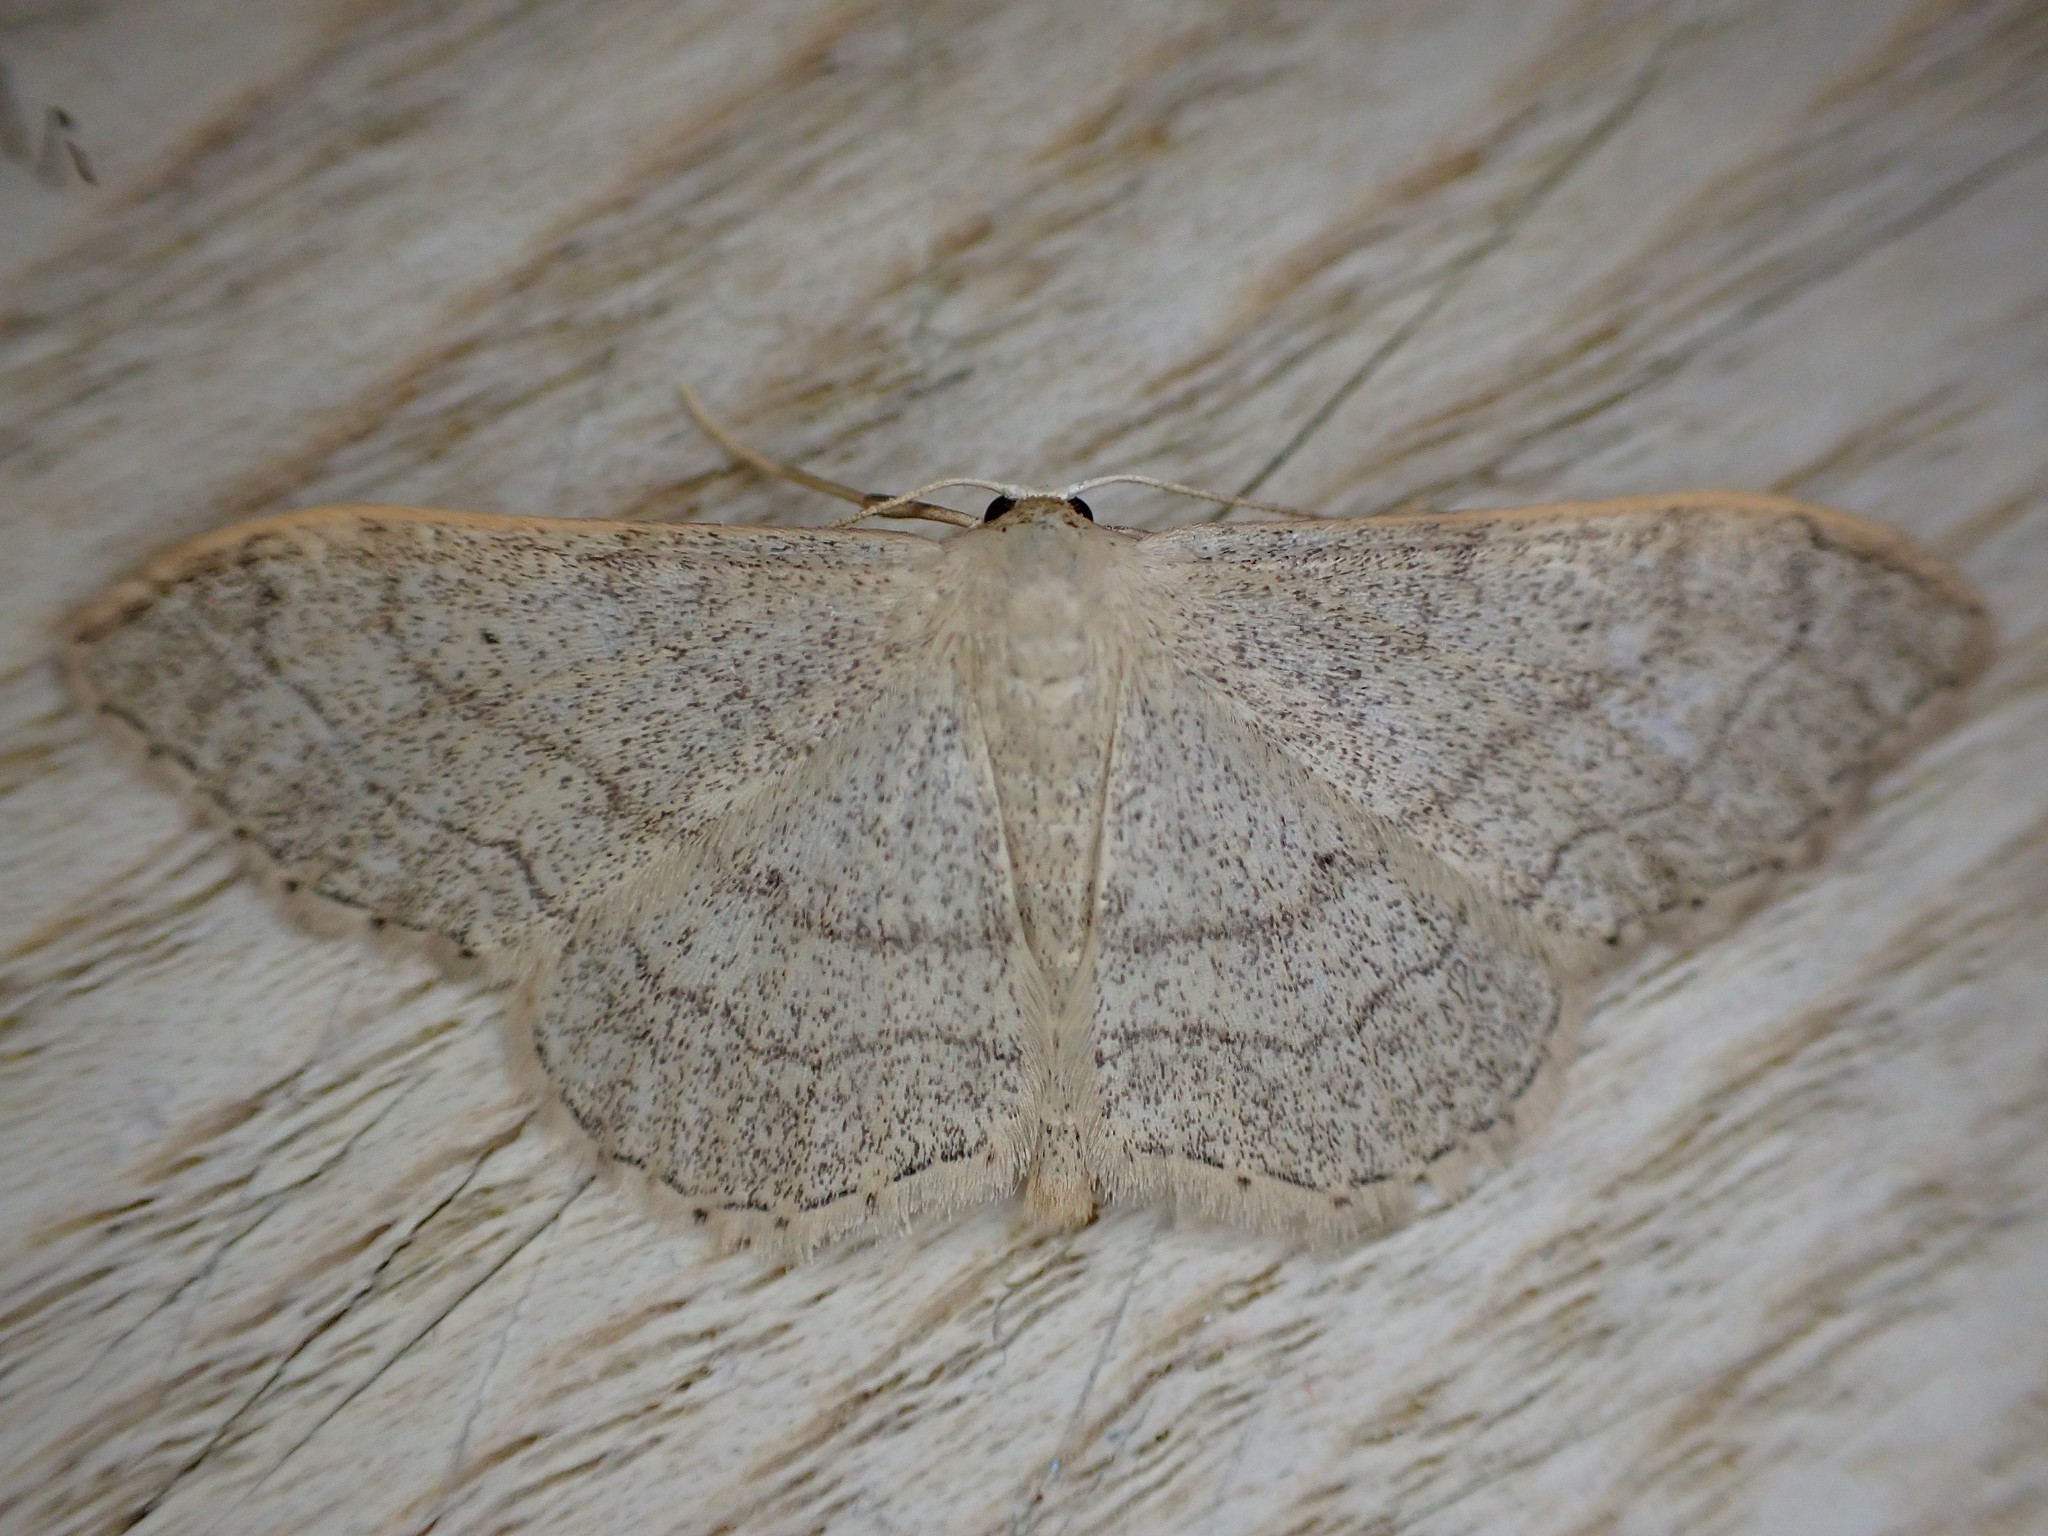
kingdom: Animalia
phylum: Arthropoda
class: Insecta
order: Lepidoptera
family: Geometridae
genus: Idaea
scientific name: Idaea aversata
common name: Riband wave
